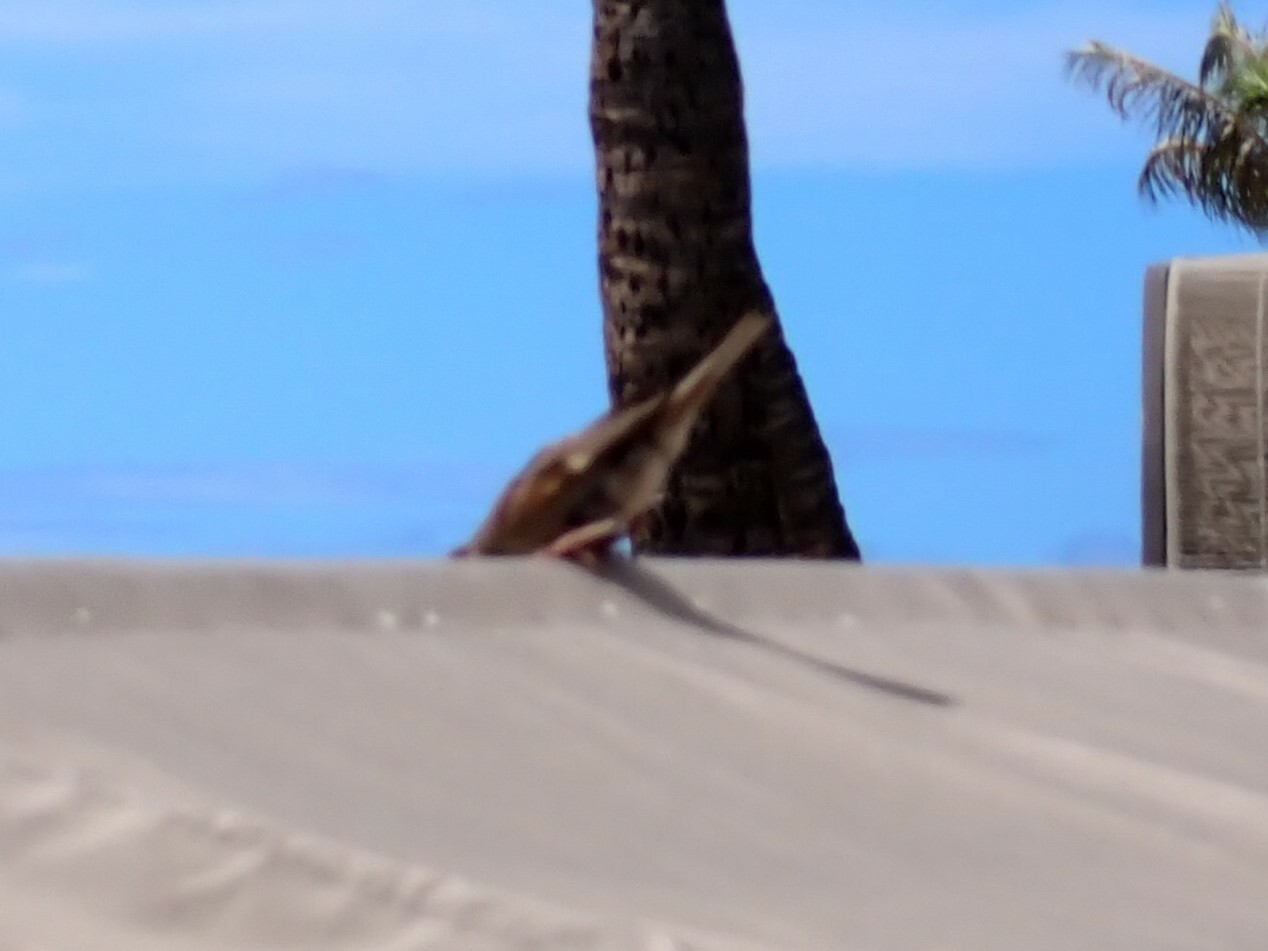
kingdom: Animalia
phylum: Chordata
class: Aves
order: Passeriformes
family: Passeridae
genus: Passer
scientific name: Passer domesticus
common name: House sparrow
